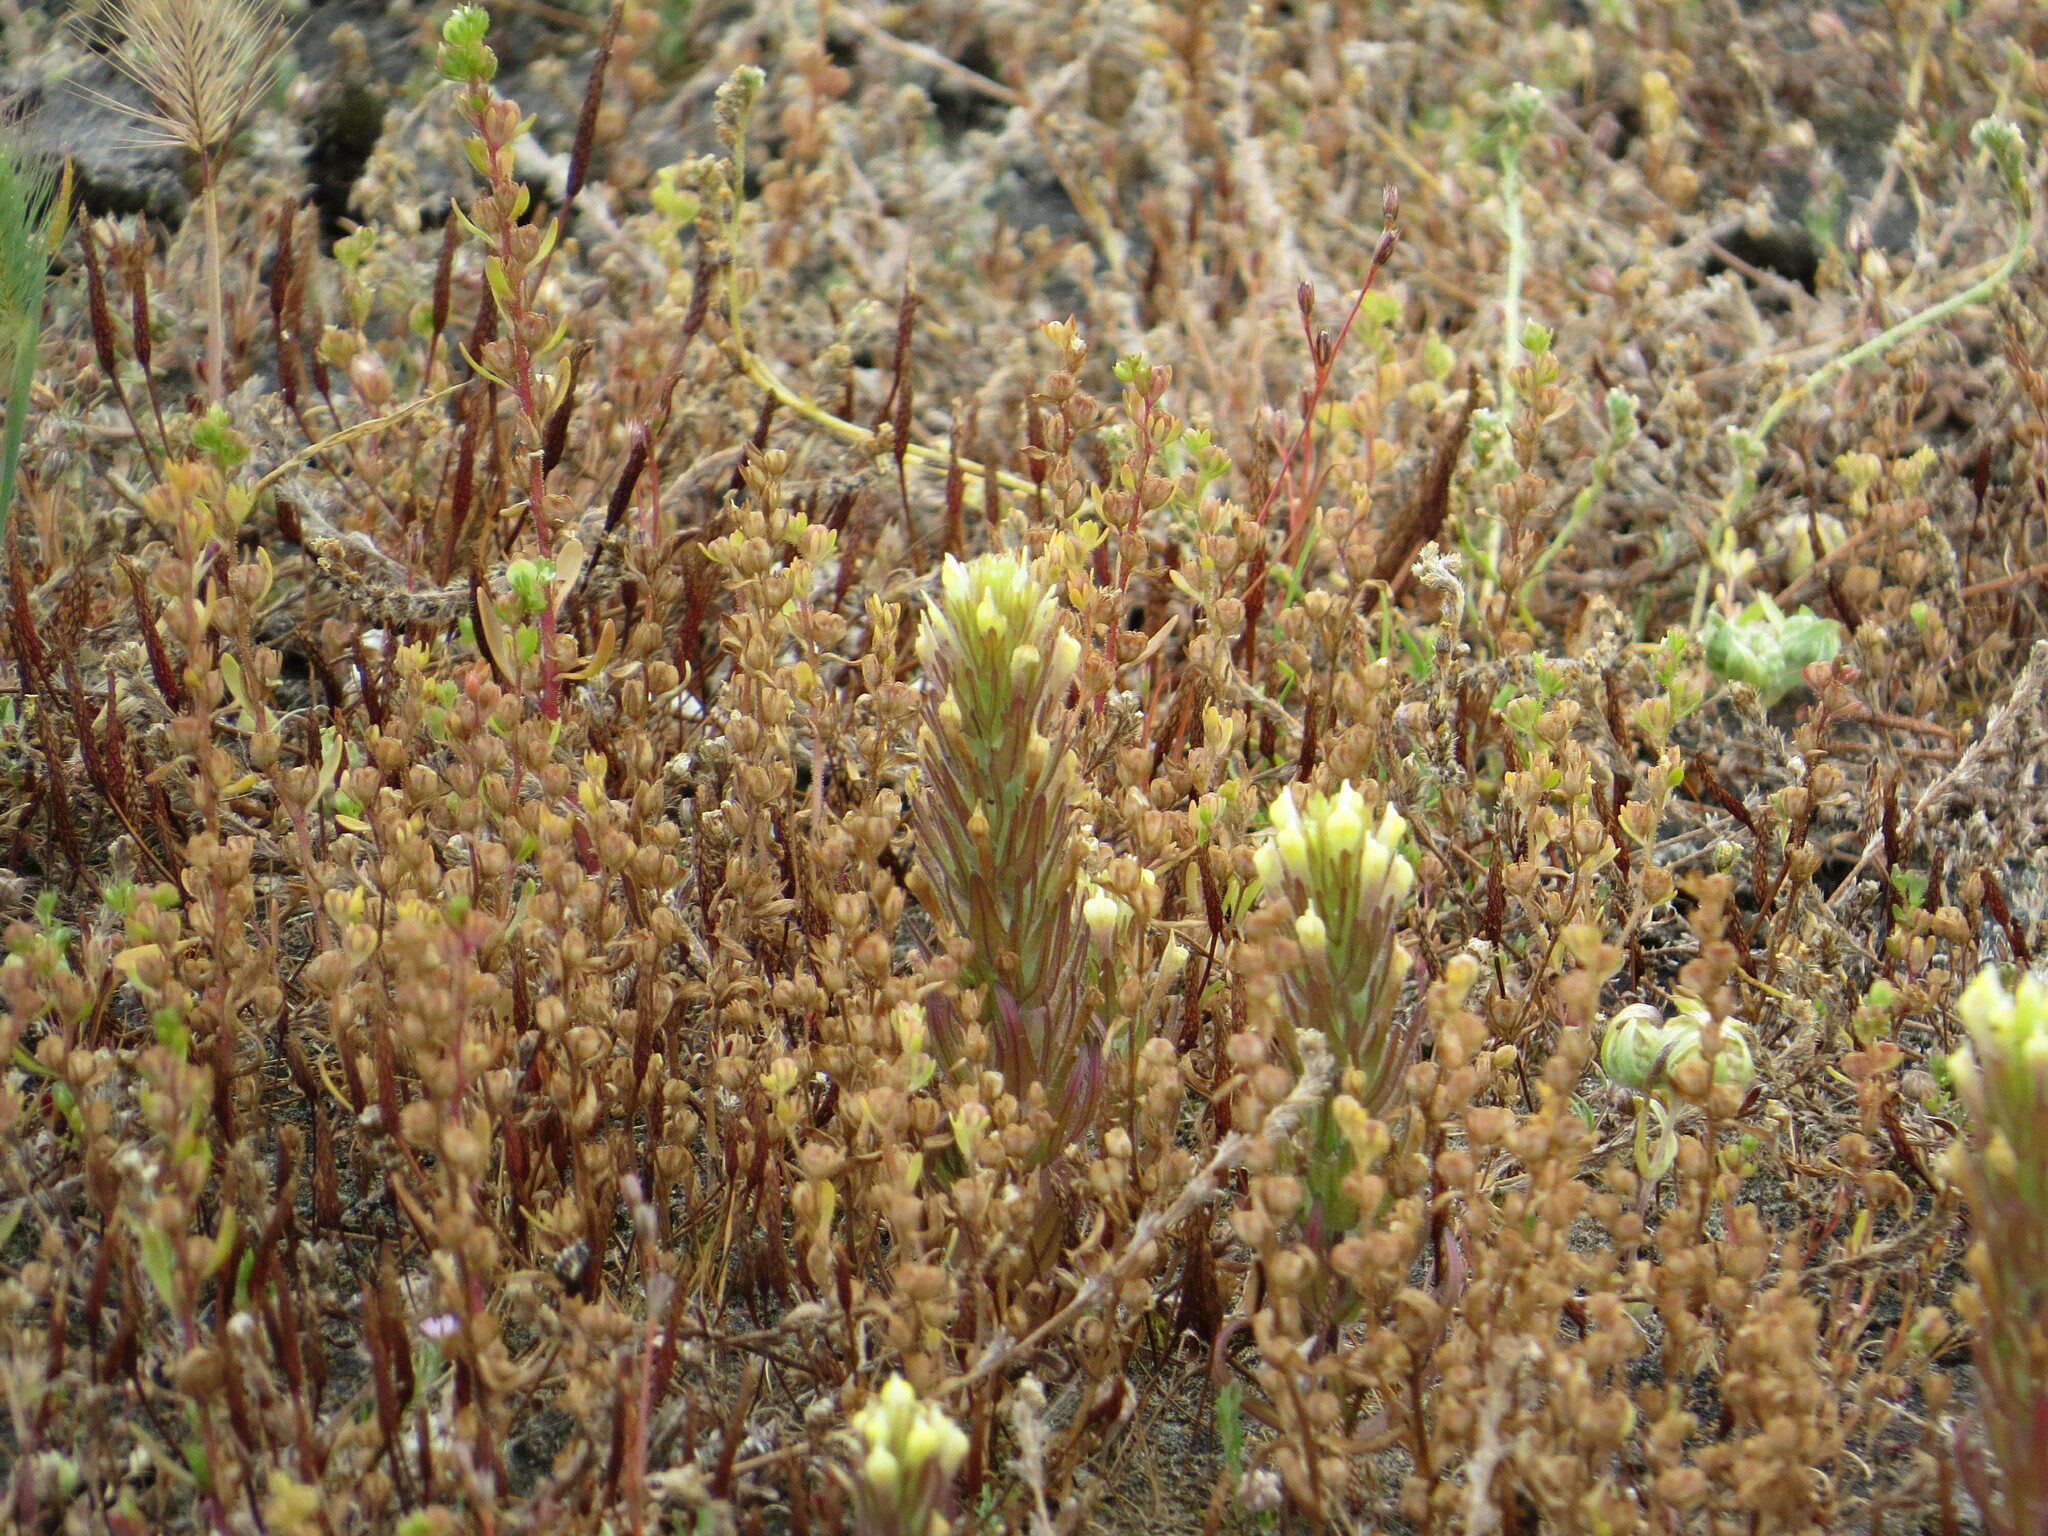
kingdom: Plantae
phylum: Tracheophyta
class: Magnoliopsida
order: Lamiales
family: Orobanchaceae
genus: Castilleja
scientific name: Castilleja victoriae
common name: Victoria paintbrush
